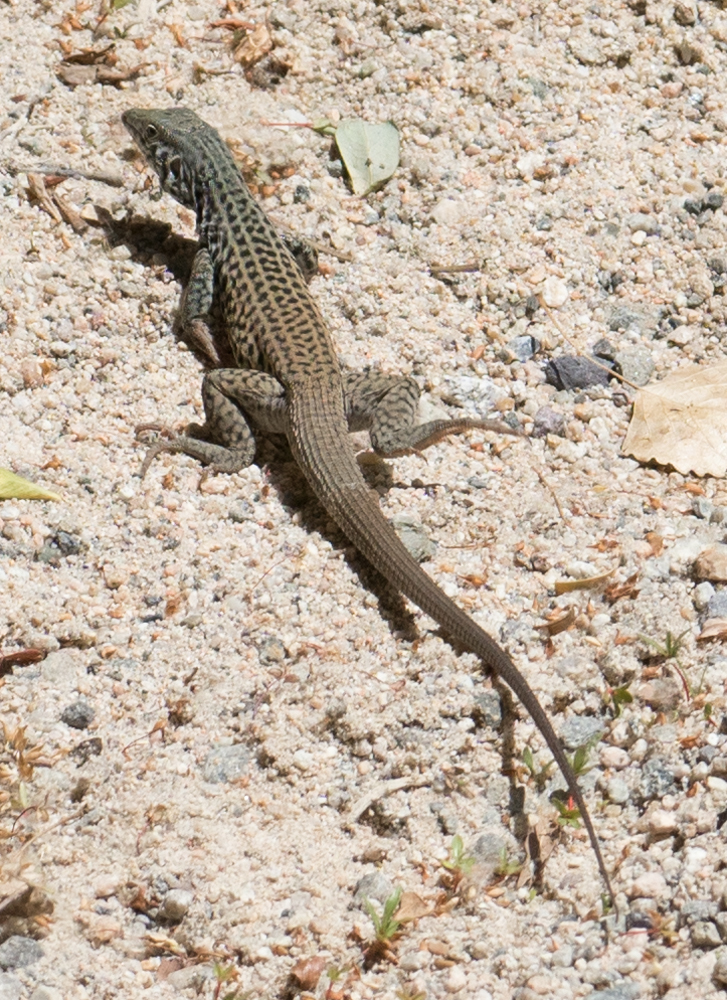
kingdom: Animalia
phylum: Chordata
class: Squamata
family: Teiidae
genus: Aspidoscelis
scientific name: Aspidoscelis tigris
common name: Tiger whiptail
